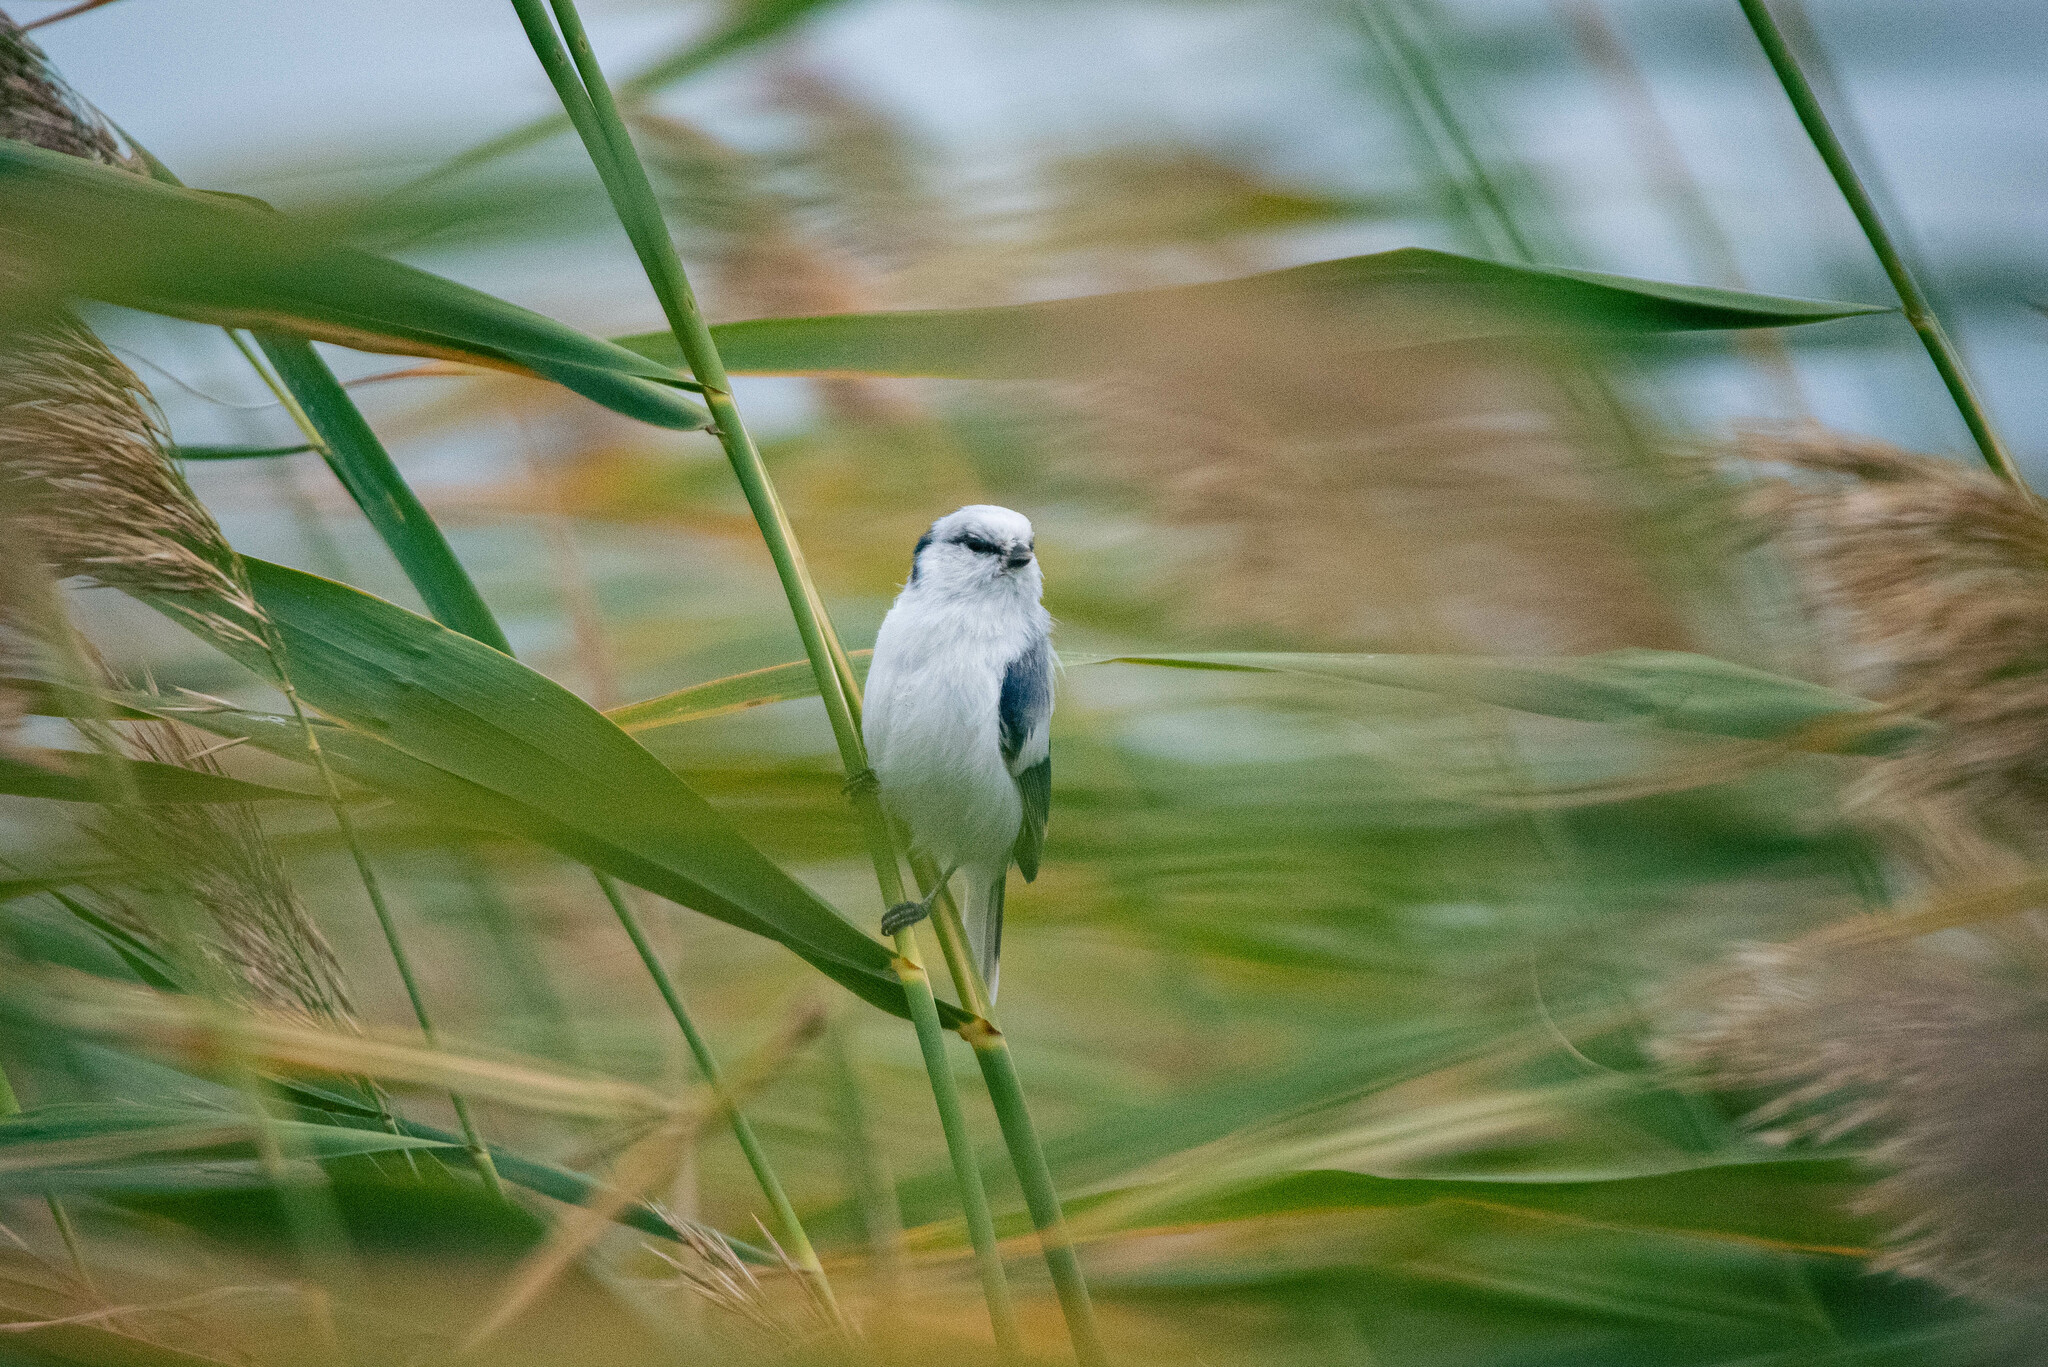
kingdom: Animalia
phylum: Chordata
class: Aves
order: Passeriformes
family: Paridae
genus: Cyanistes
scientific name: Cyanistes cyanus
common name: Azure tit
